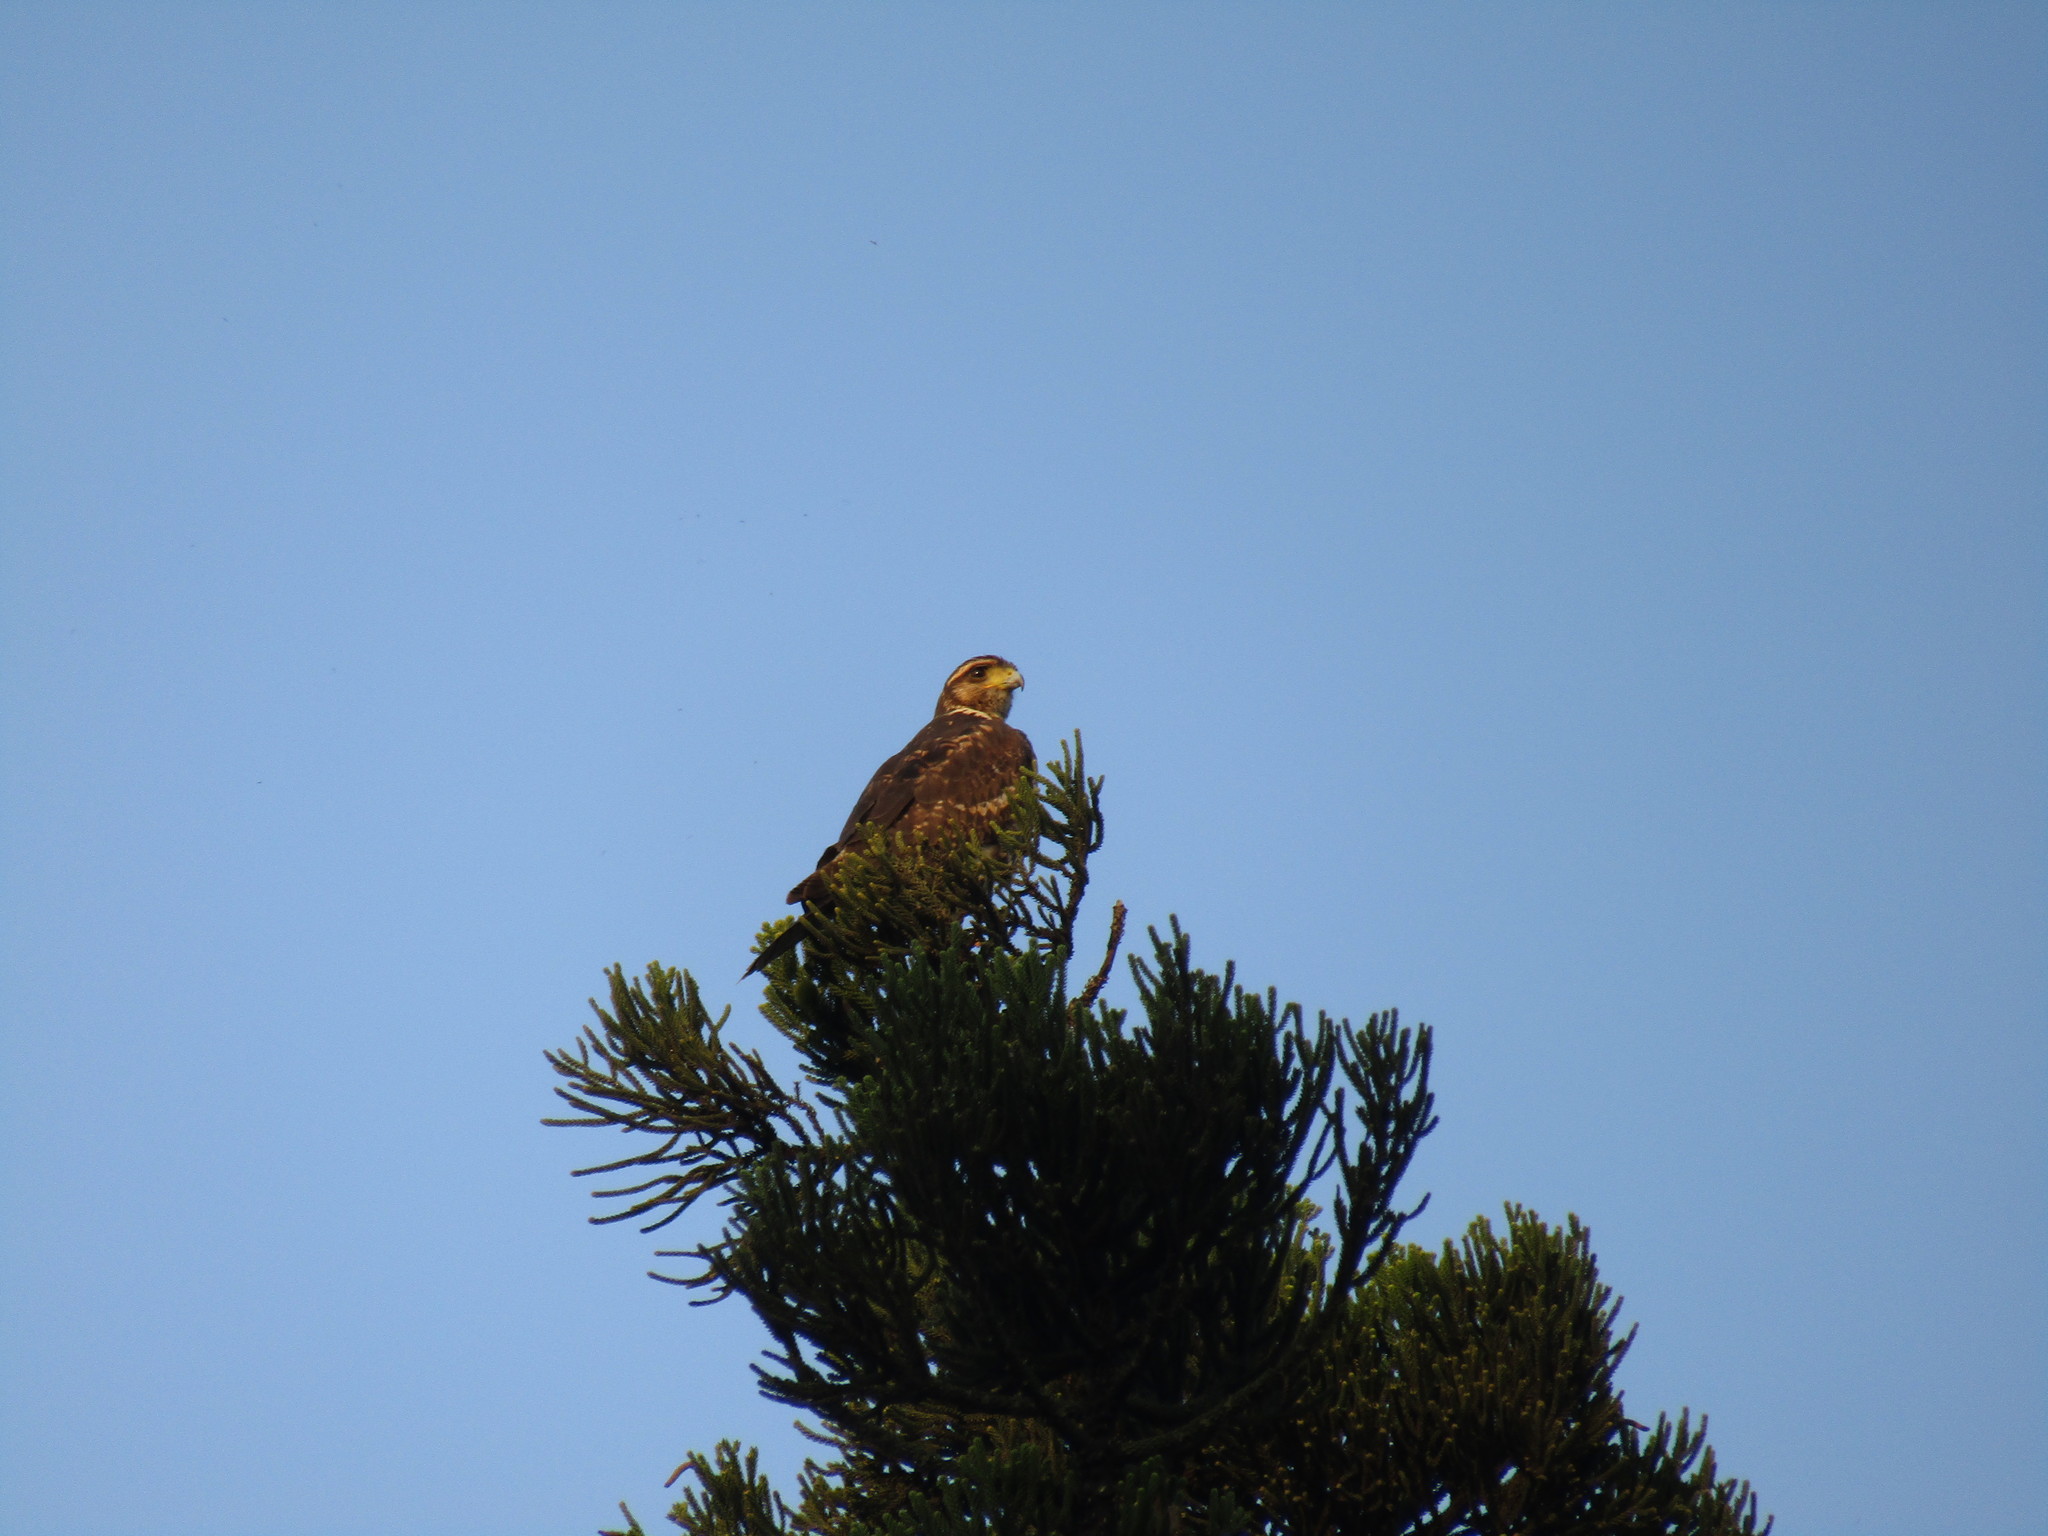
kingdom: Animalia
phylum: Chordata
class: Aves
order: Accipitriformes
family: Accipitridae
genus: Parabuteo
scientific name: Parabuteo unicinctus
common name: Harris's hawk
